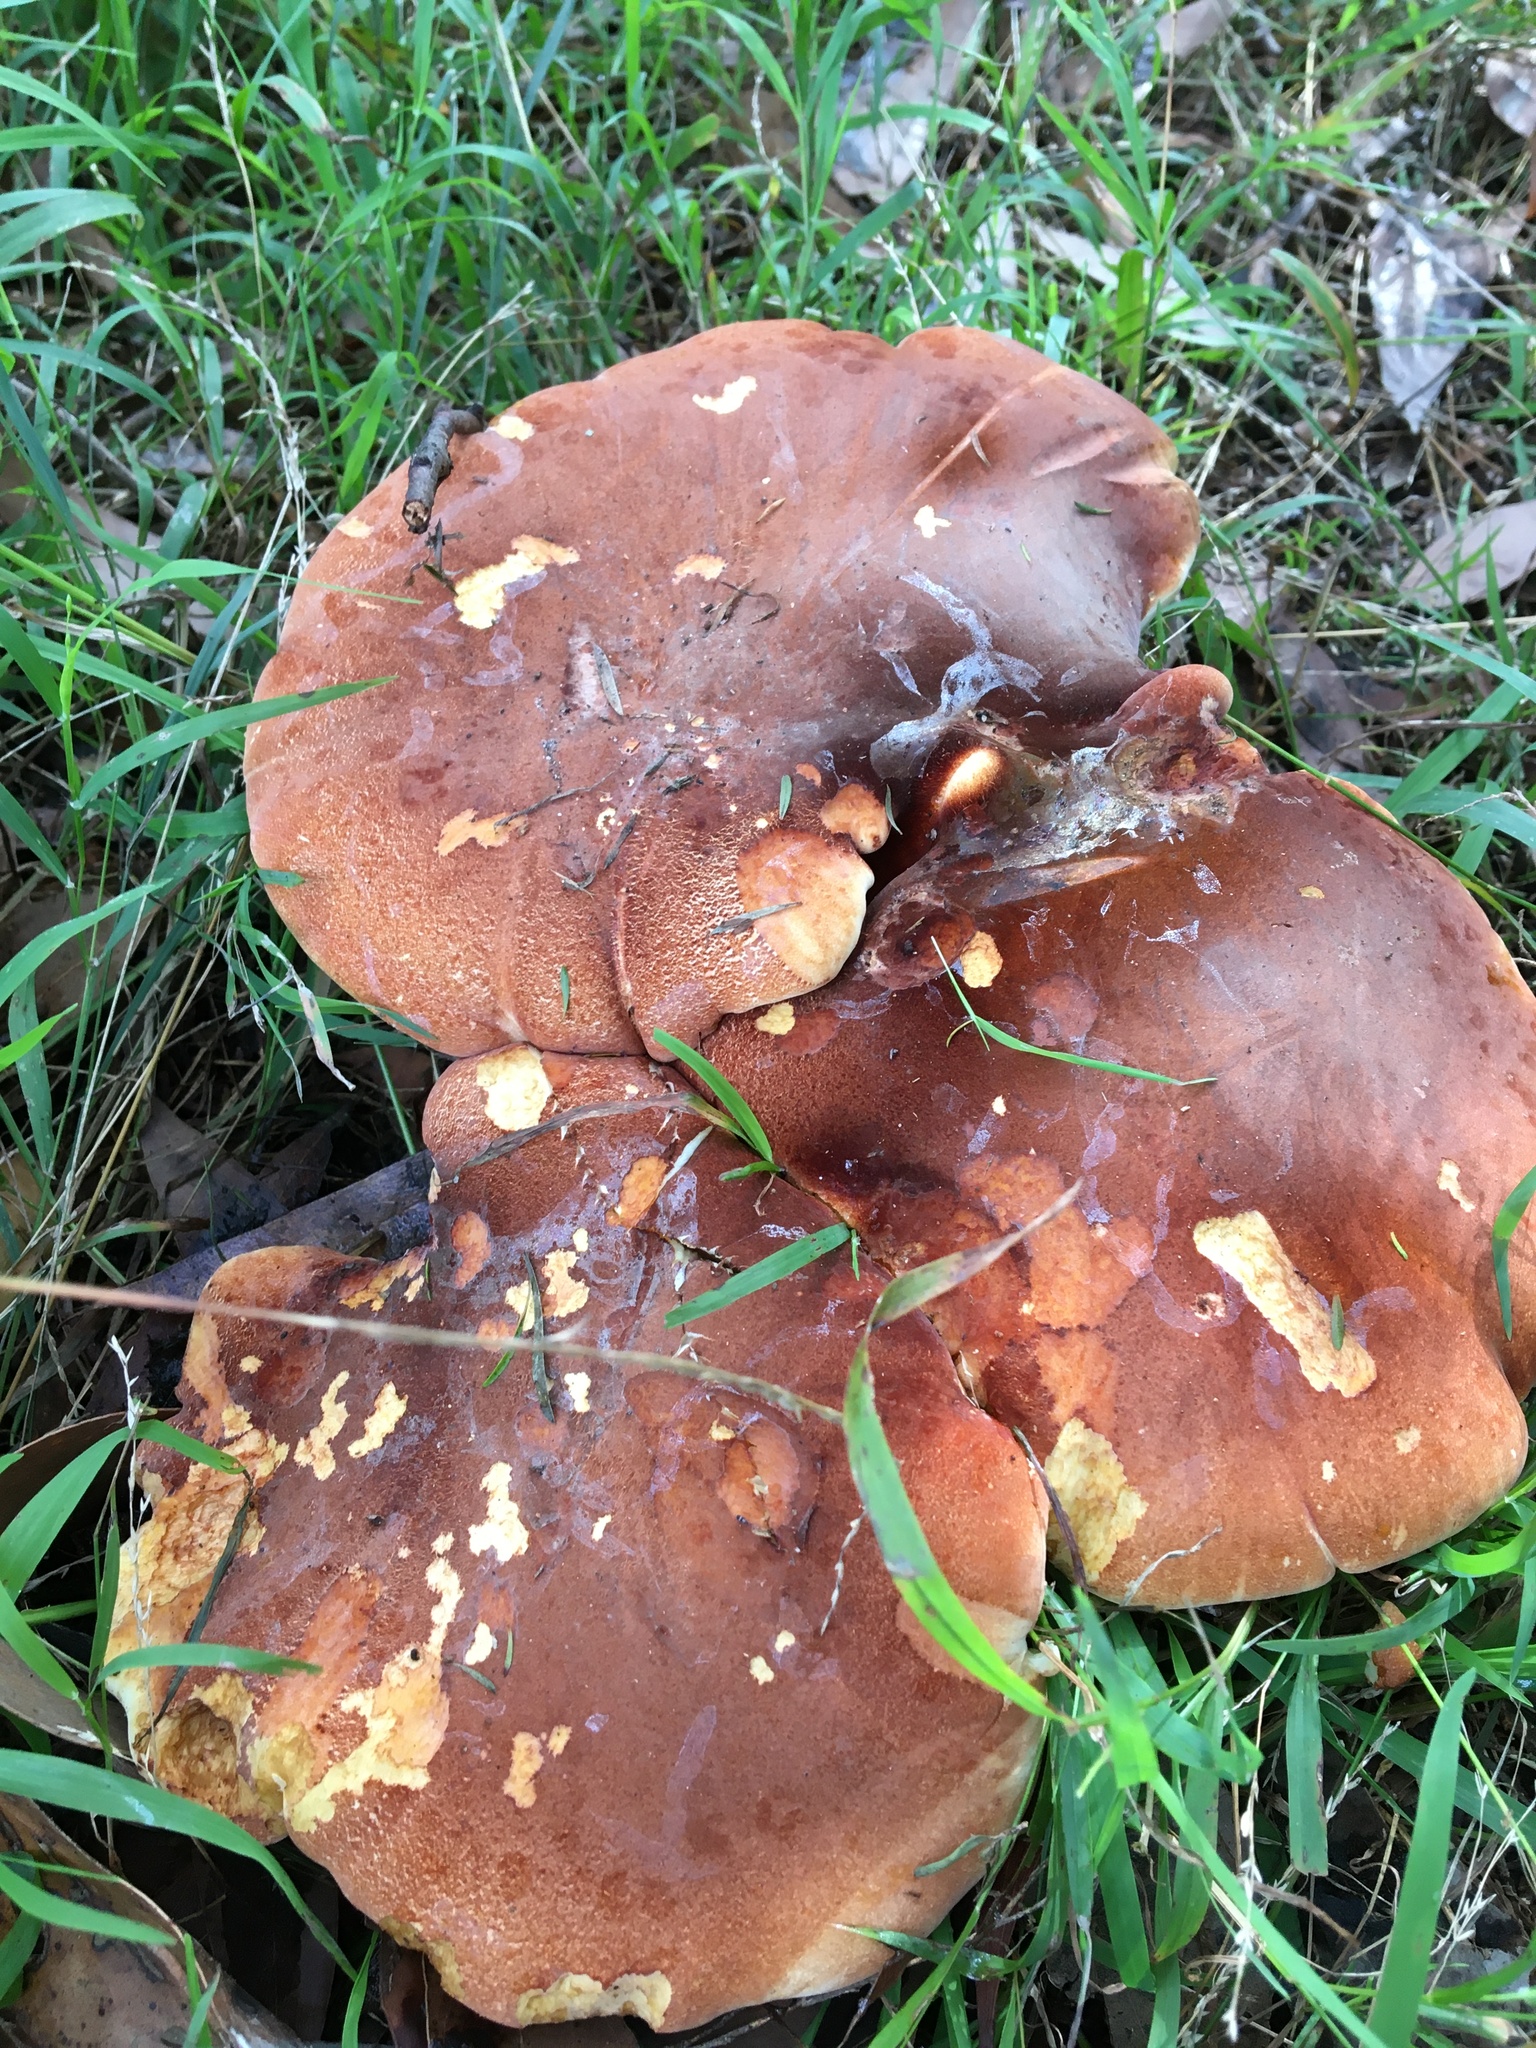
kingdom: Fungi
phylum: Basidiomycota
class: Agaricomycetes
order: Polyporales
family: Fomitopsidaceae
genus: Fomitopsis
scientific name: Fomitopsis
